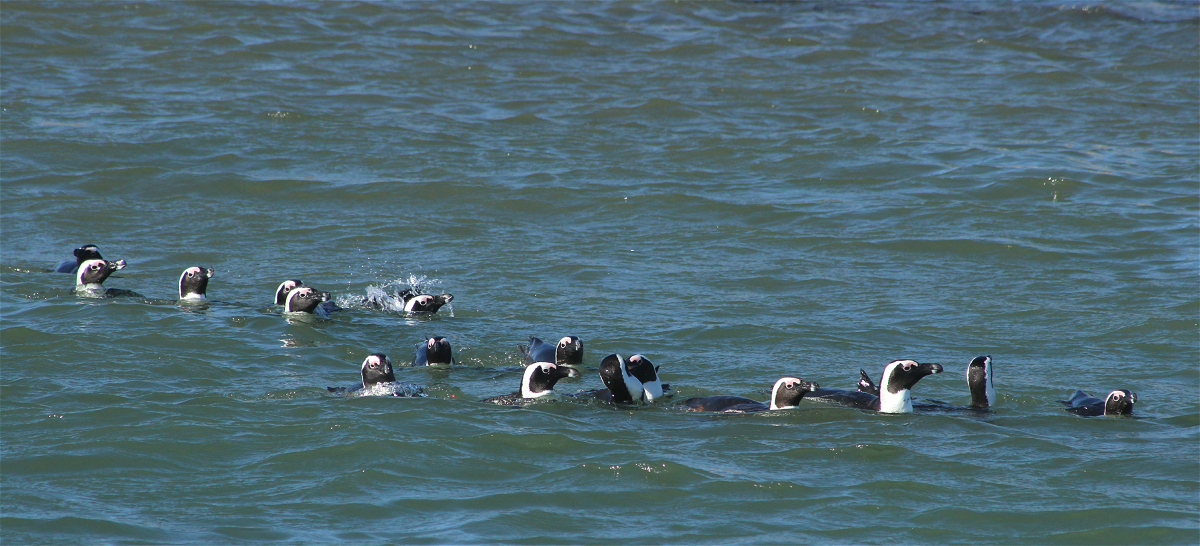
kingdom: Animalia
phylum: Chordata
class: Aves
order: Sphenisciformes
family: Spheniscidae
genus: Spheniscus
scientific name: Spheniscus demersus
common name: African penguin
